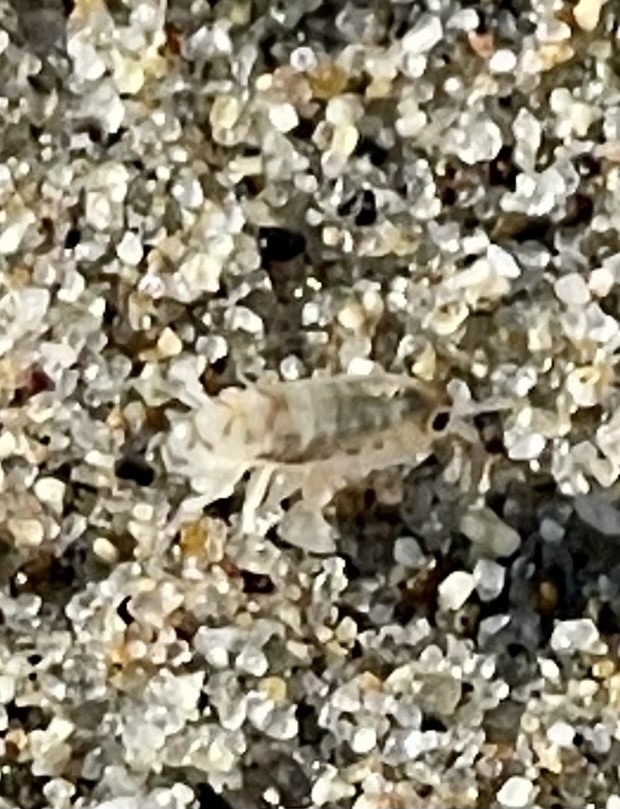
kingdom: Animalia
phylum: Arthropoda
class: Malacostraca
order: Amphipoda
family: Talitridae
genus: Megalorchestia
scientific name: Megalorchestia minor
